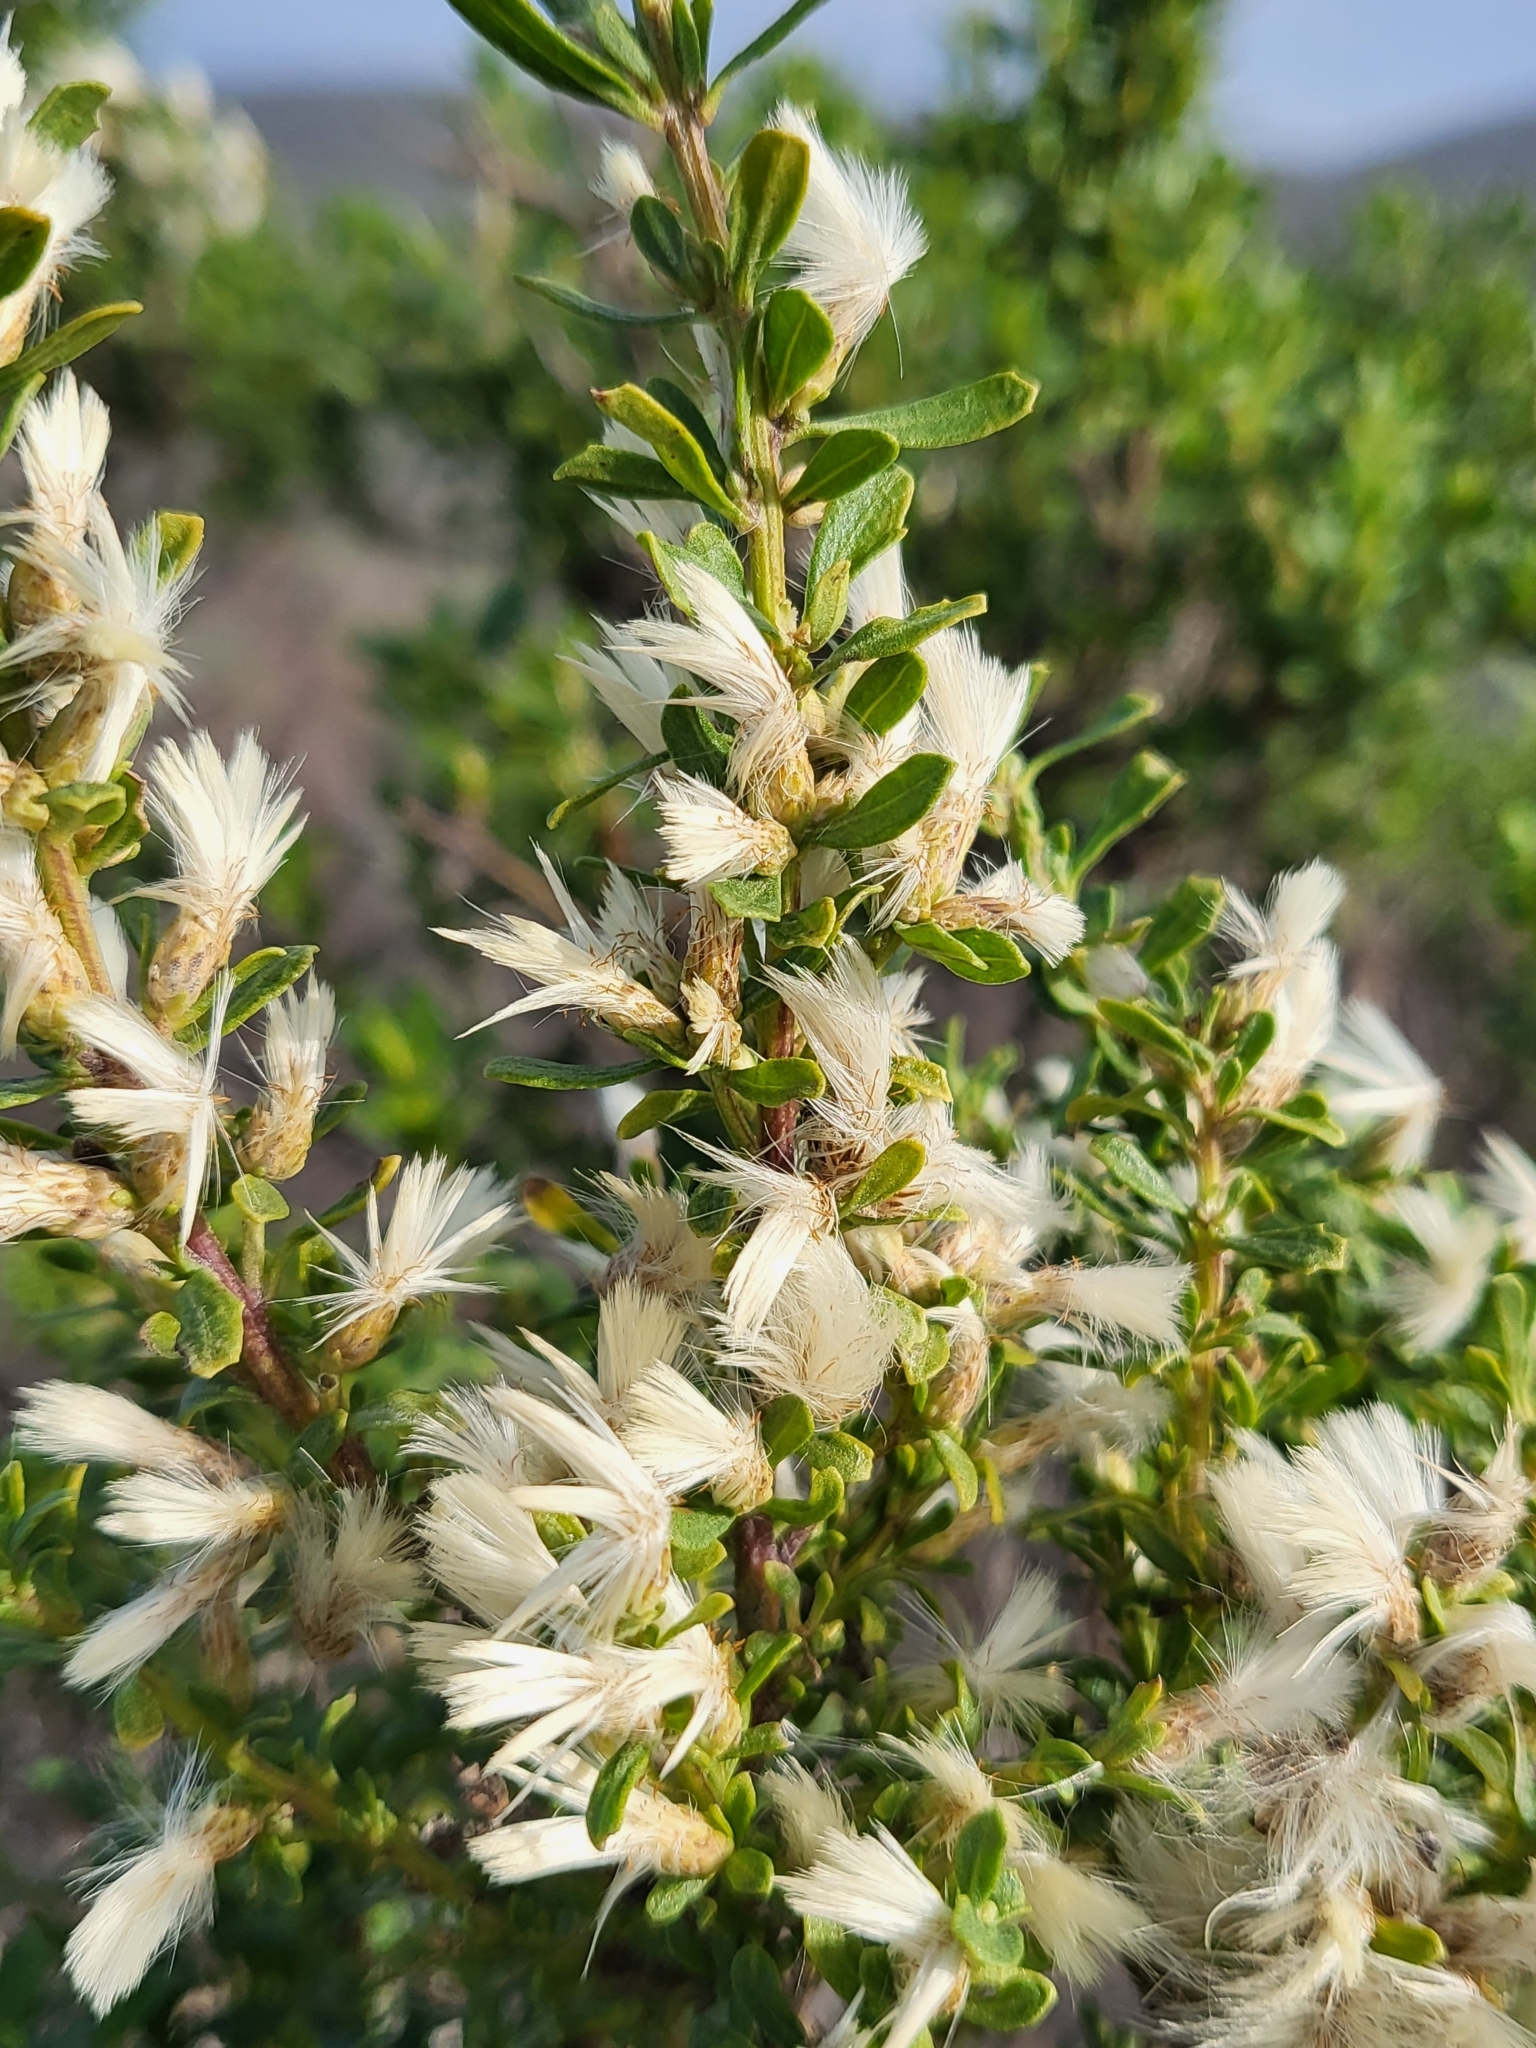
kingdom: Plantae
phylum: Tracheophyta
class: Magnoliopsida
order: Asterales
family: Asteraceae
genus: Baccharis
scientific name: Baccharis pilularis
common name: Coyotebrush
